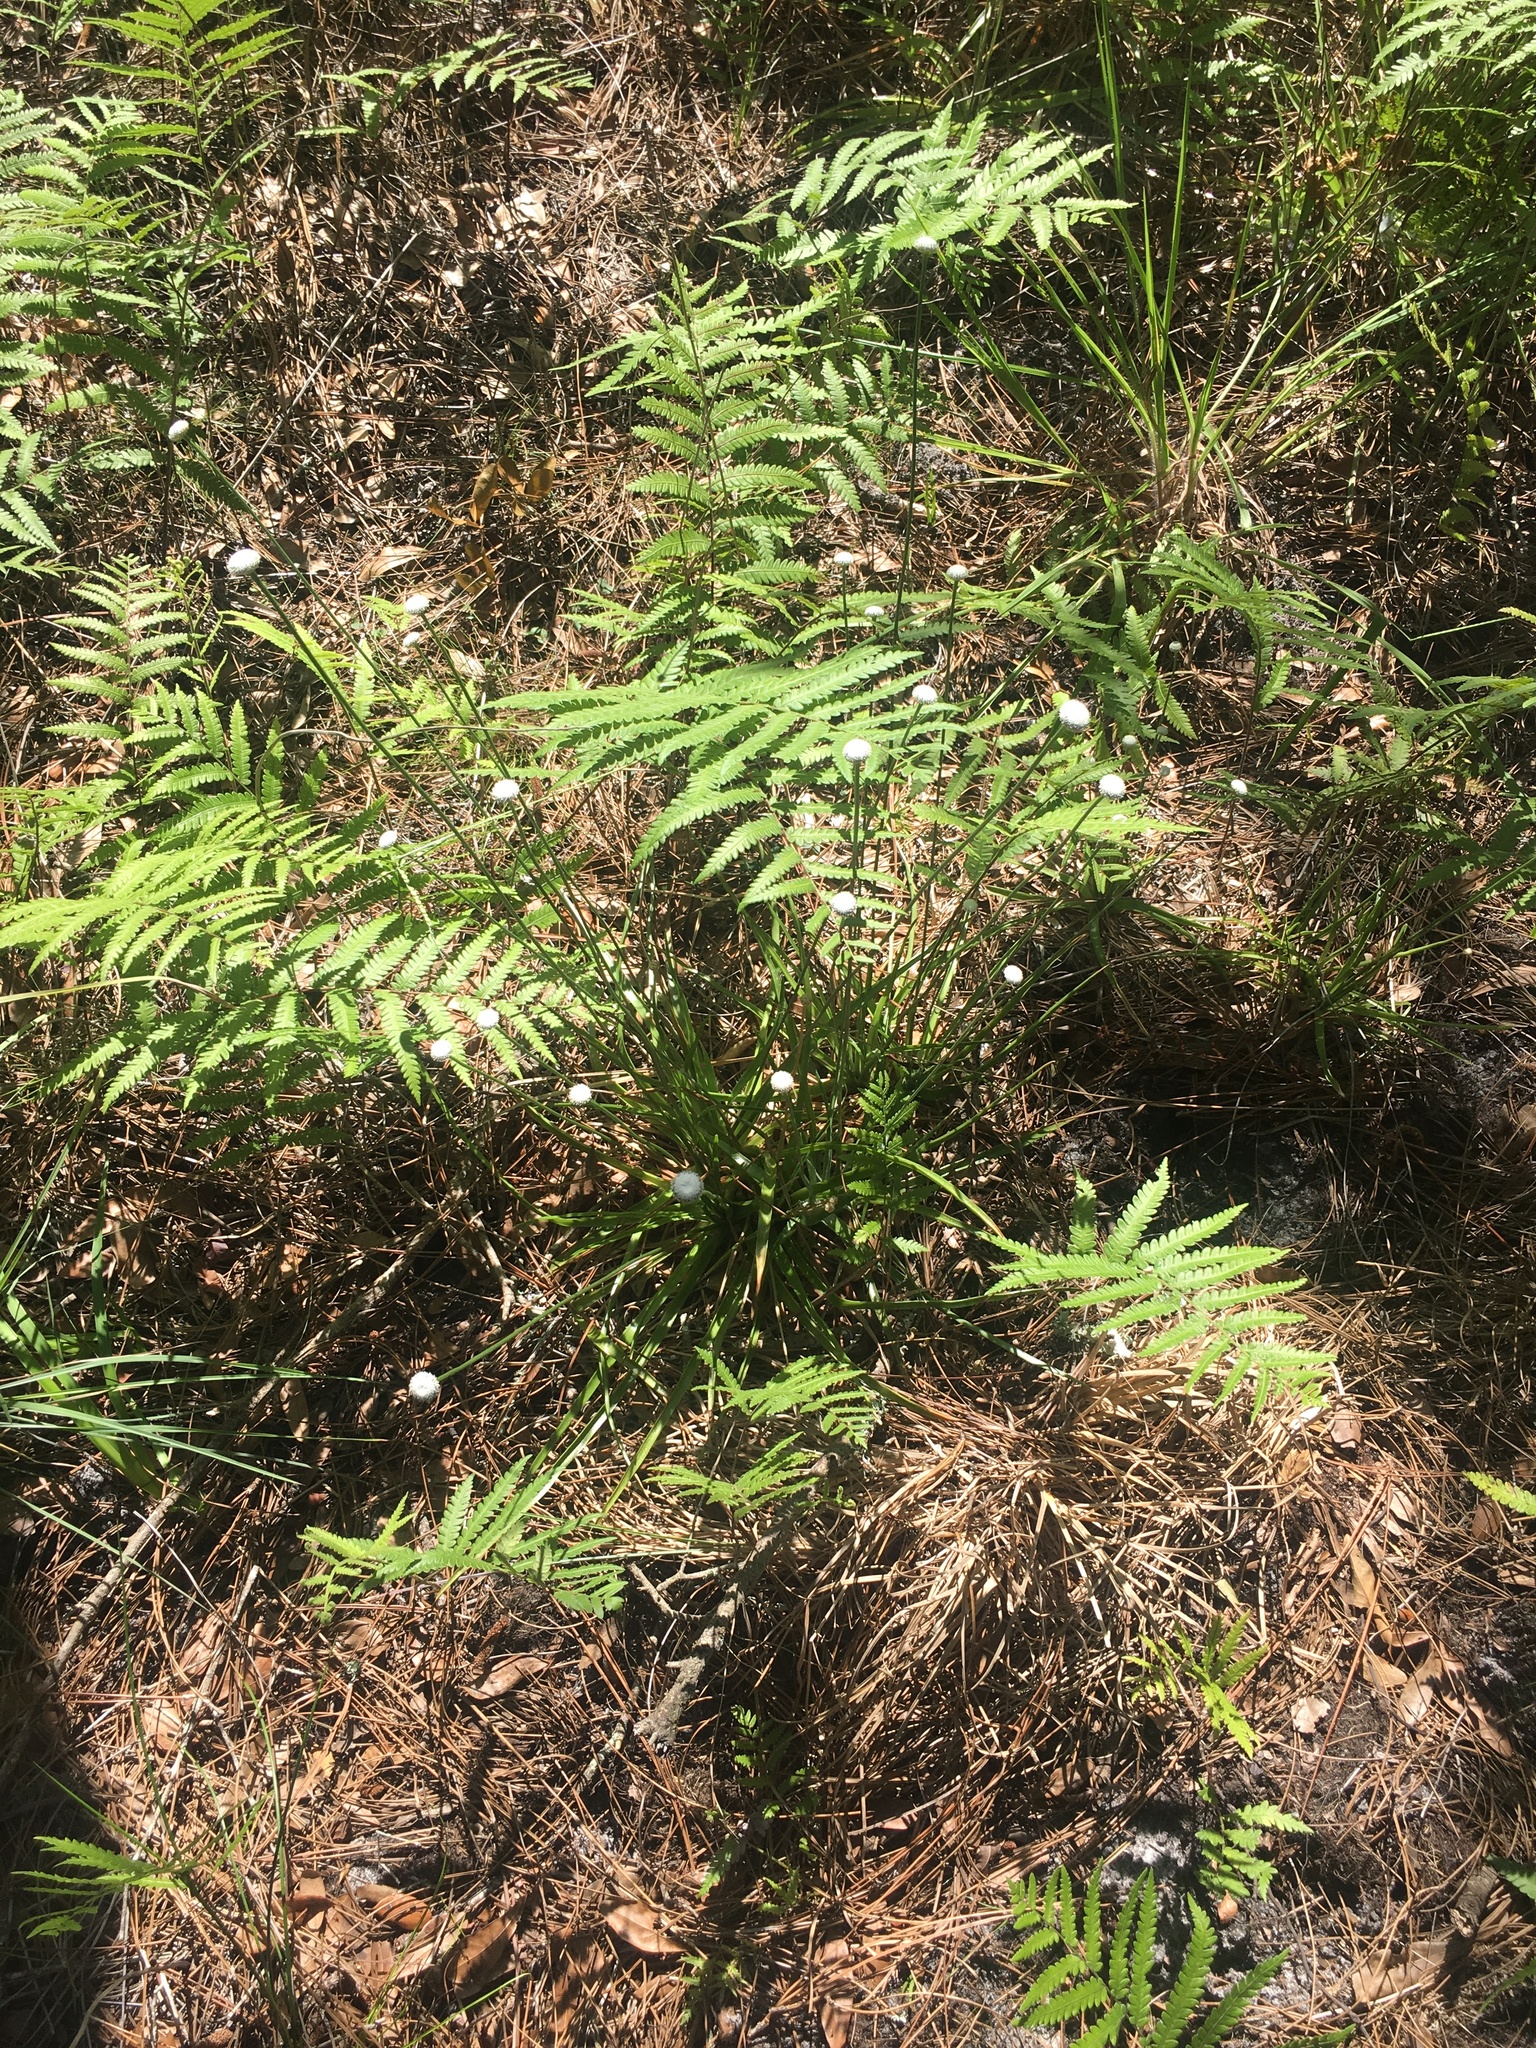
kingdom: Plantae
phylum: Tracheophyta
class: Liliopsida
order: Poales
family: Eriocaulaceae
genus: Eriocaulon
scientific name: Eriocaulon decangulare
